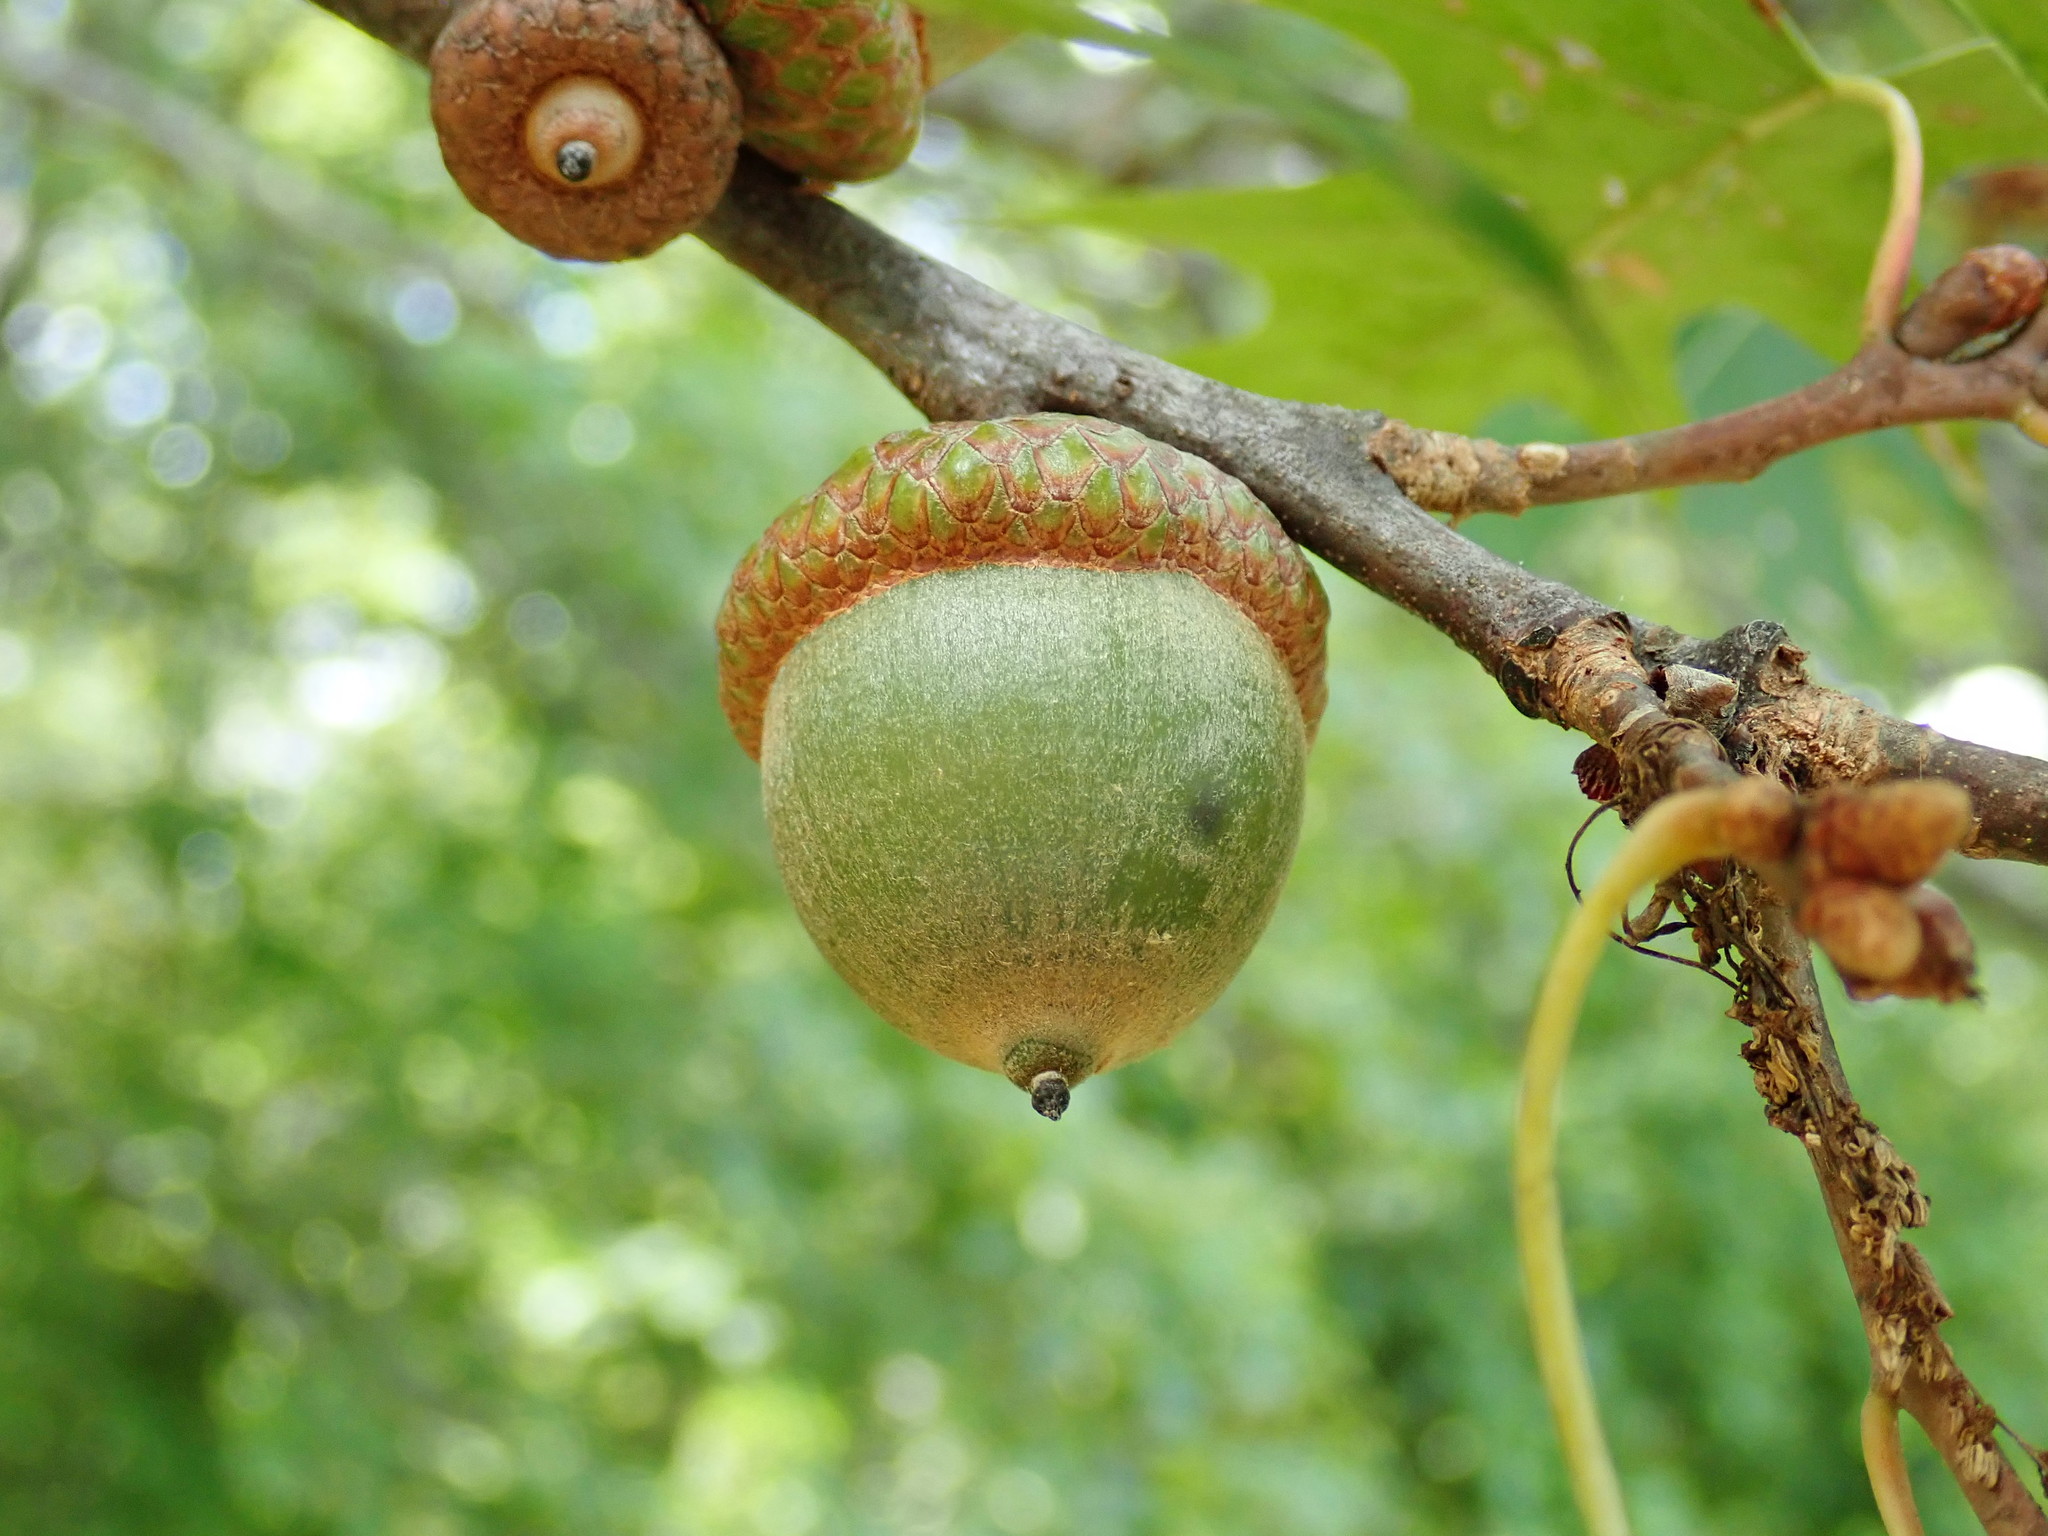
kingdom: Plantae
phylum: Tracheophyta
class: Magnoliopsida
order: Fagales
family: Fagaceae
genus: Quercus
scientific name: Quercus rubra
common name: Red oak
